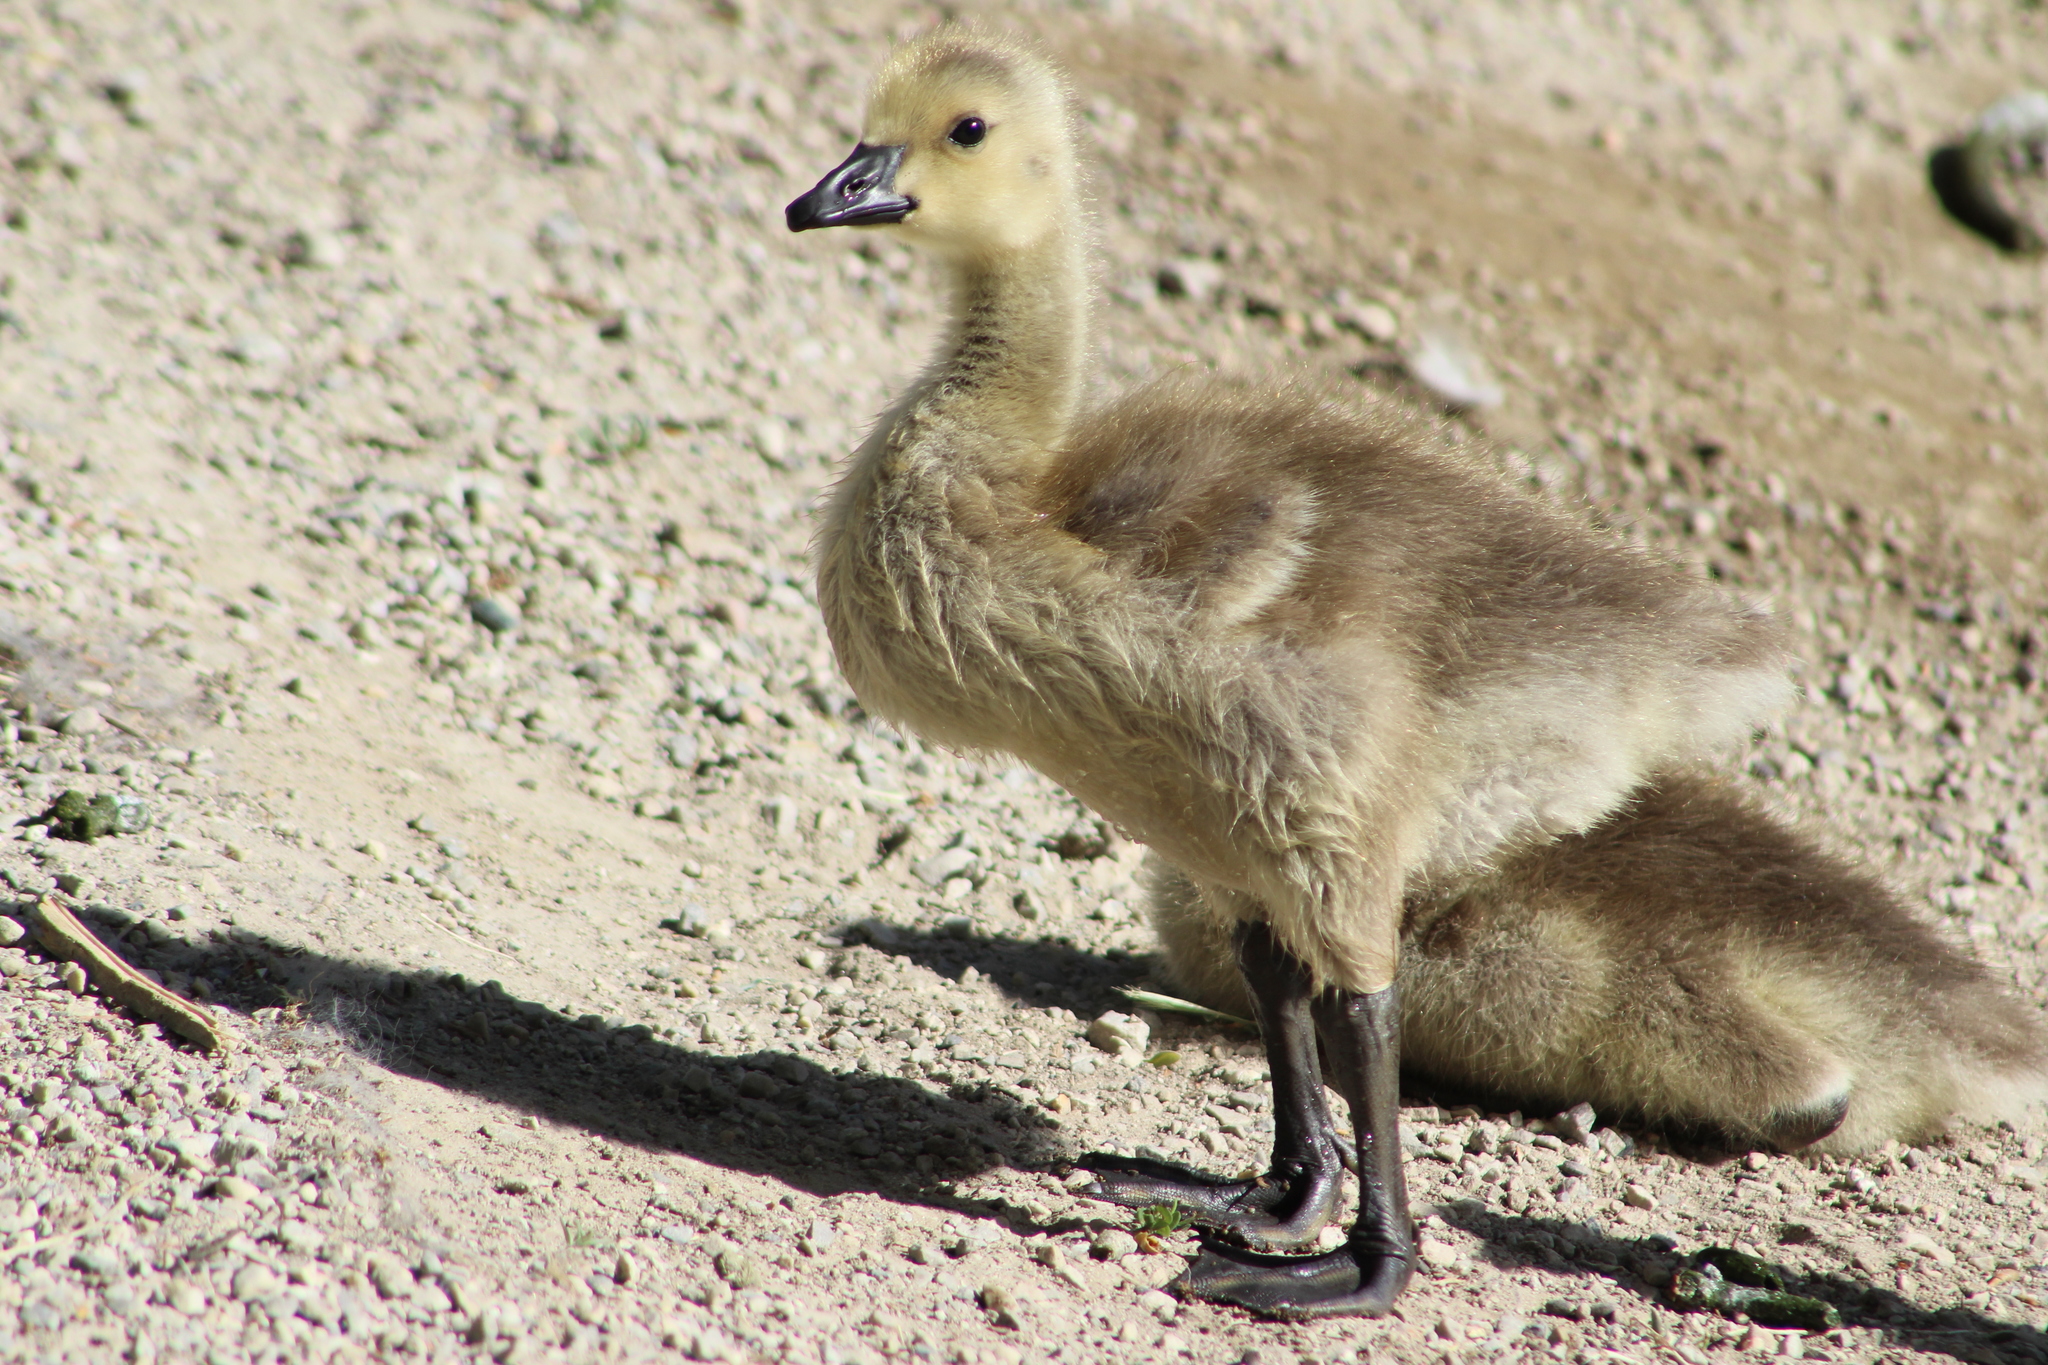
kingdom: Animalia
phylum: Chordata
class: Aves
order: Anseriformes
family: Anatidae
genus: Branta
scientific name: Branta canadensis
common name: Canada goose
